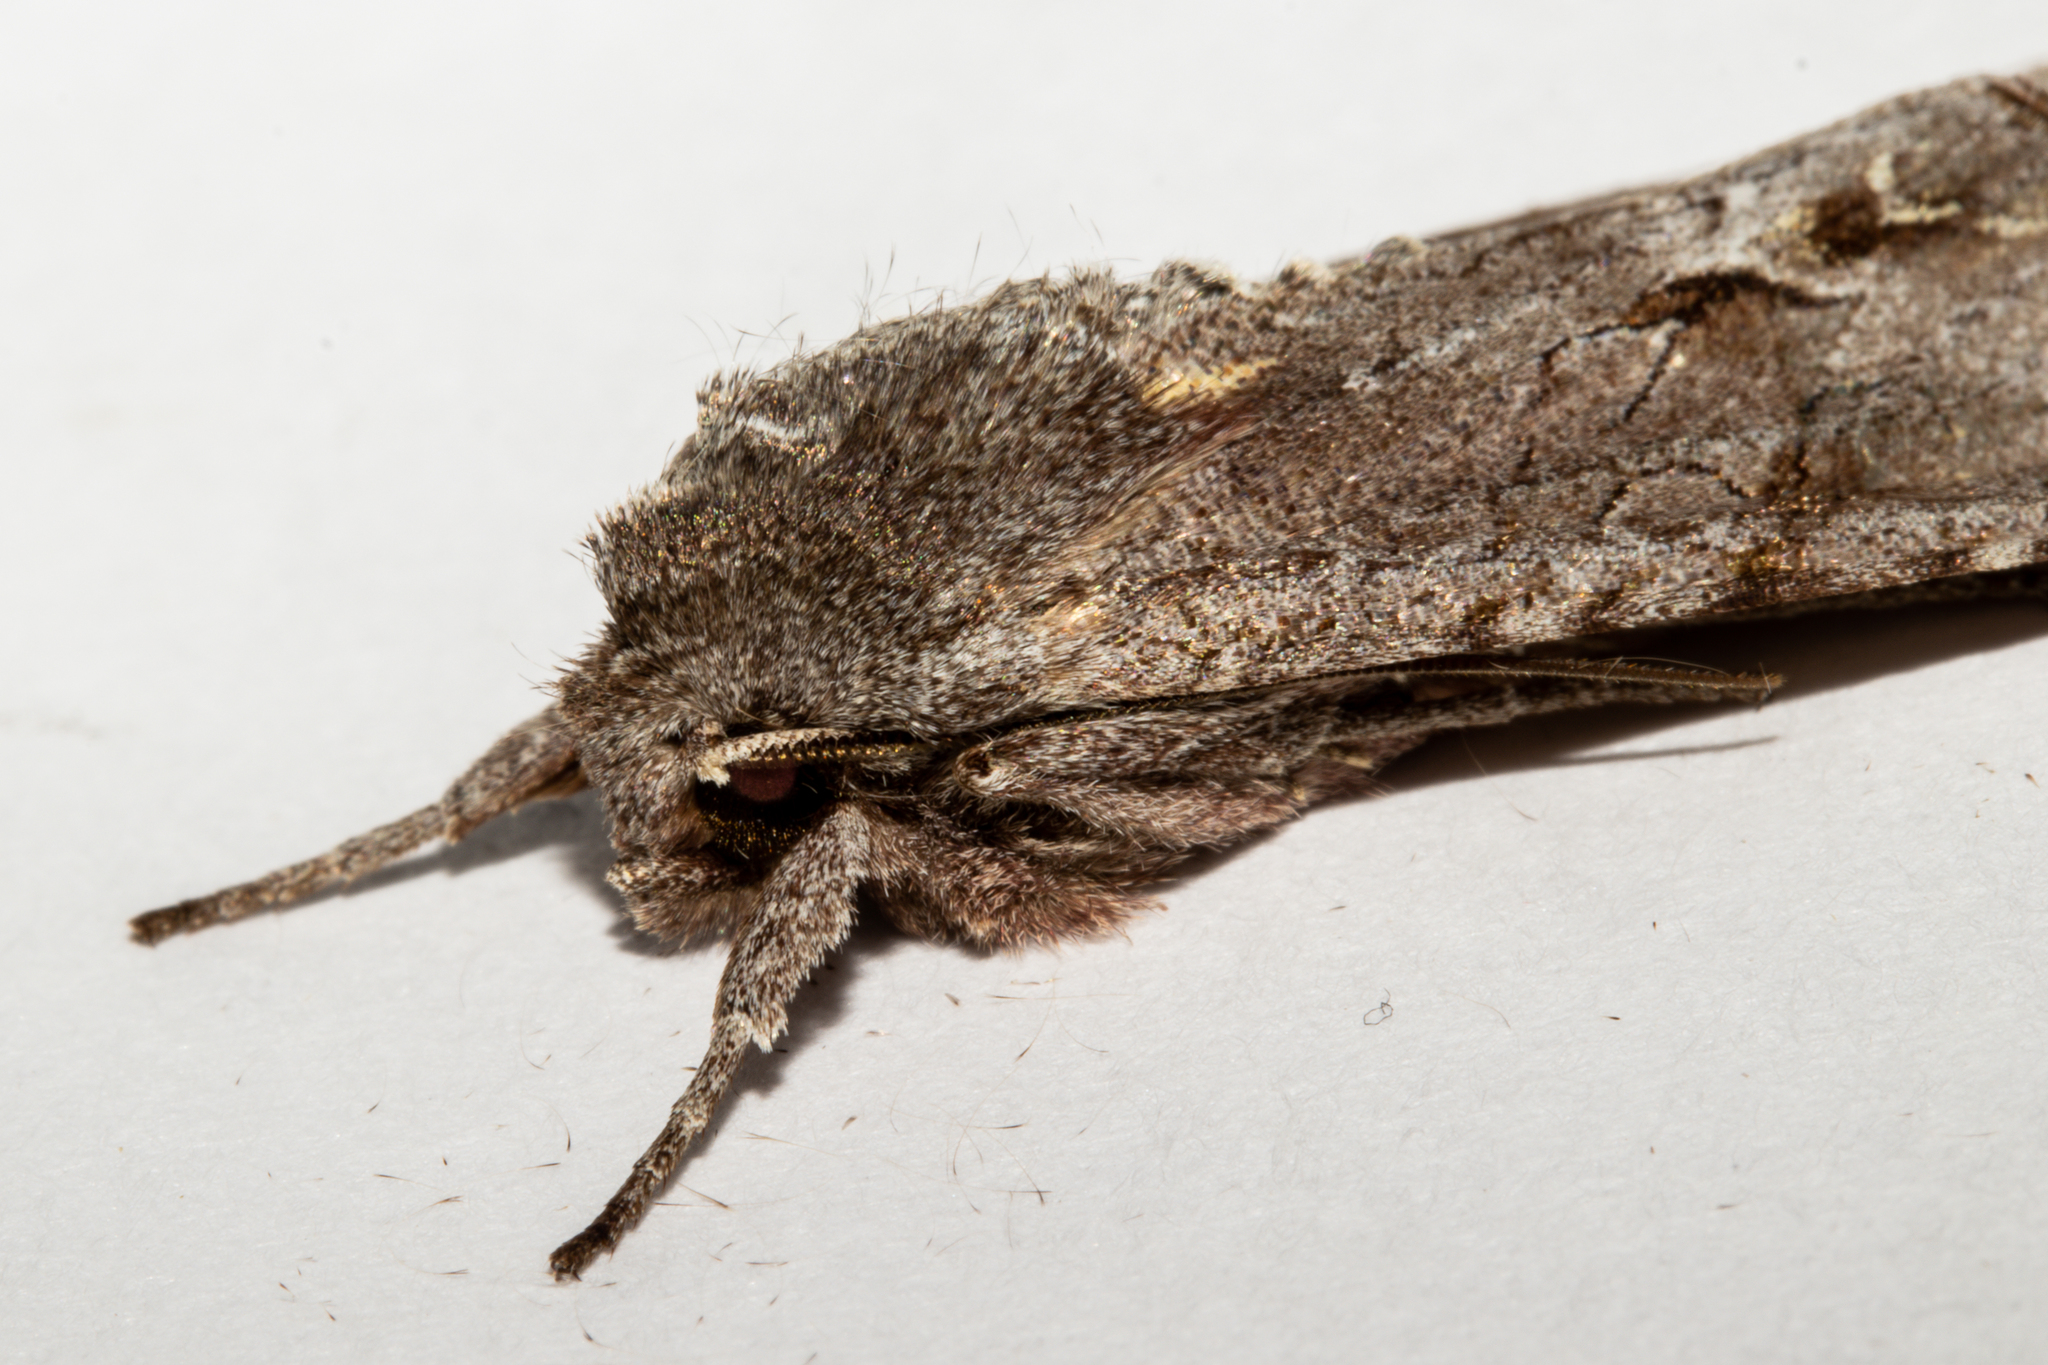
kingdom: Animalia
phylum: Arthropoda
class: Insecta
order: Lepidoptera
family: Noctuidae
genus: Ichneutica
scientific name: Ichneutica
